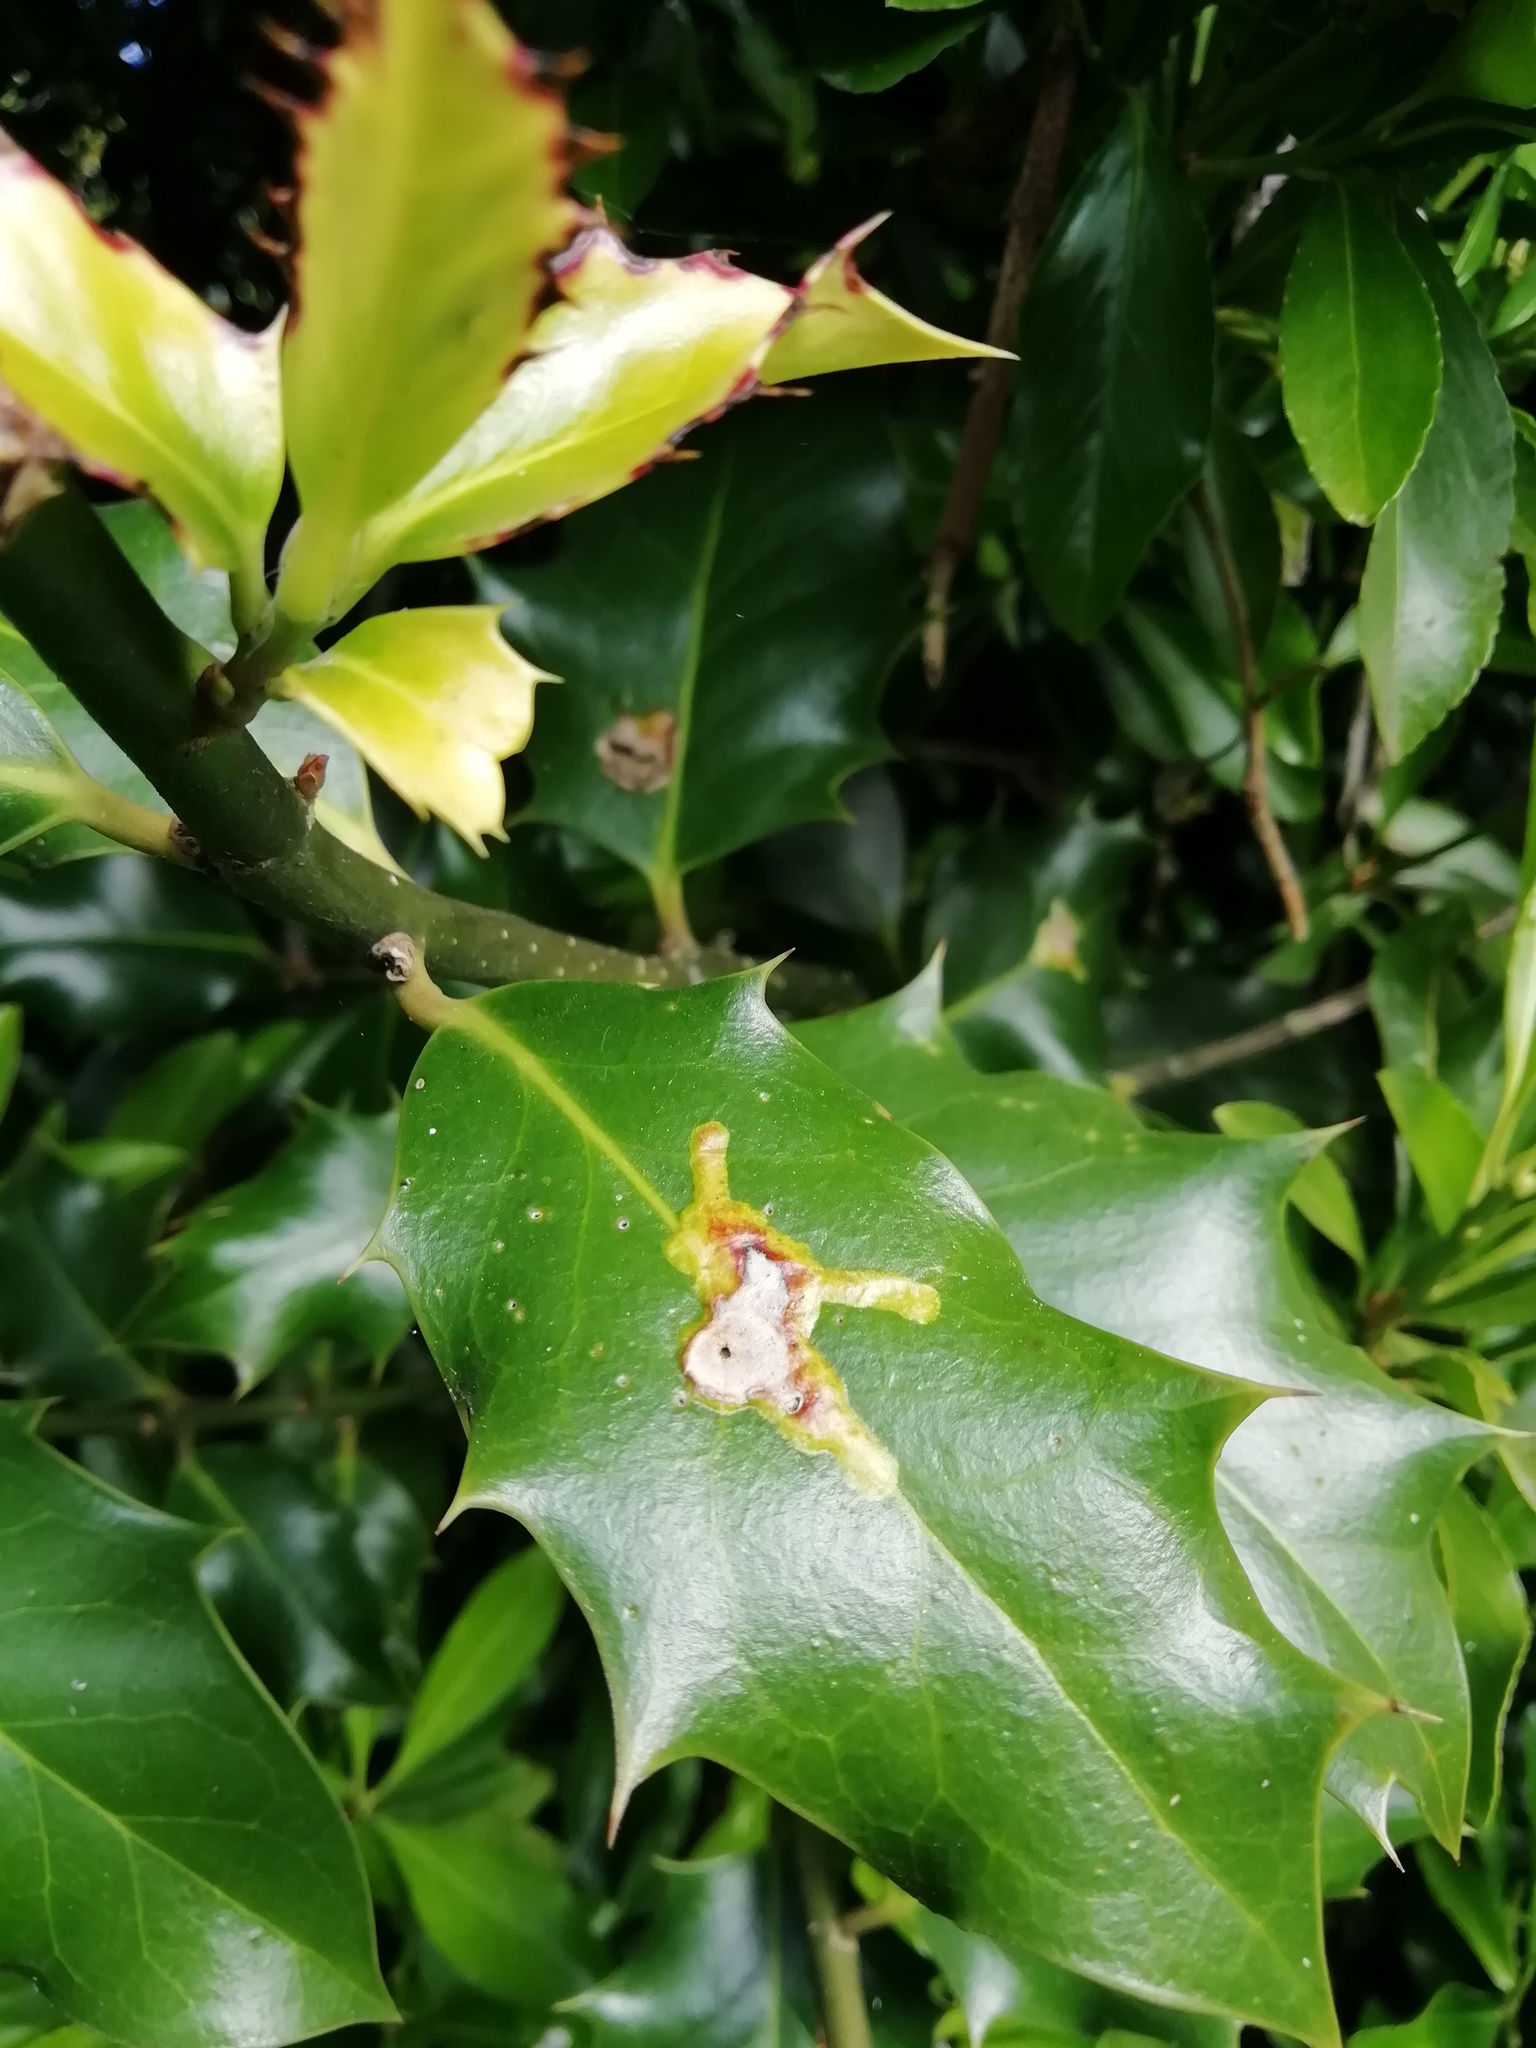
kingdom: Animalia
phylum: Arthropoda
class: Insecta
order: Diptera
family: Agromyzidae
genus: Phytomyza
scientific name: Phytomyza ilicis
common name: Holly leafminer
